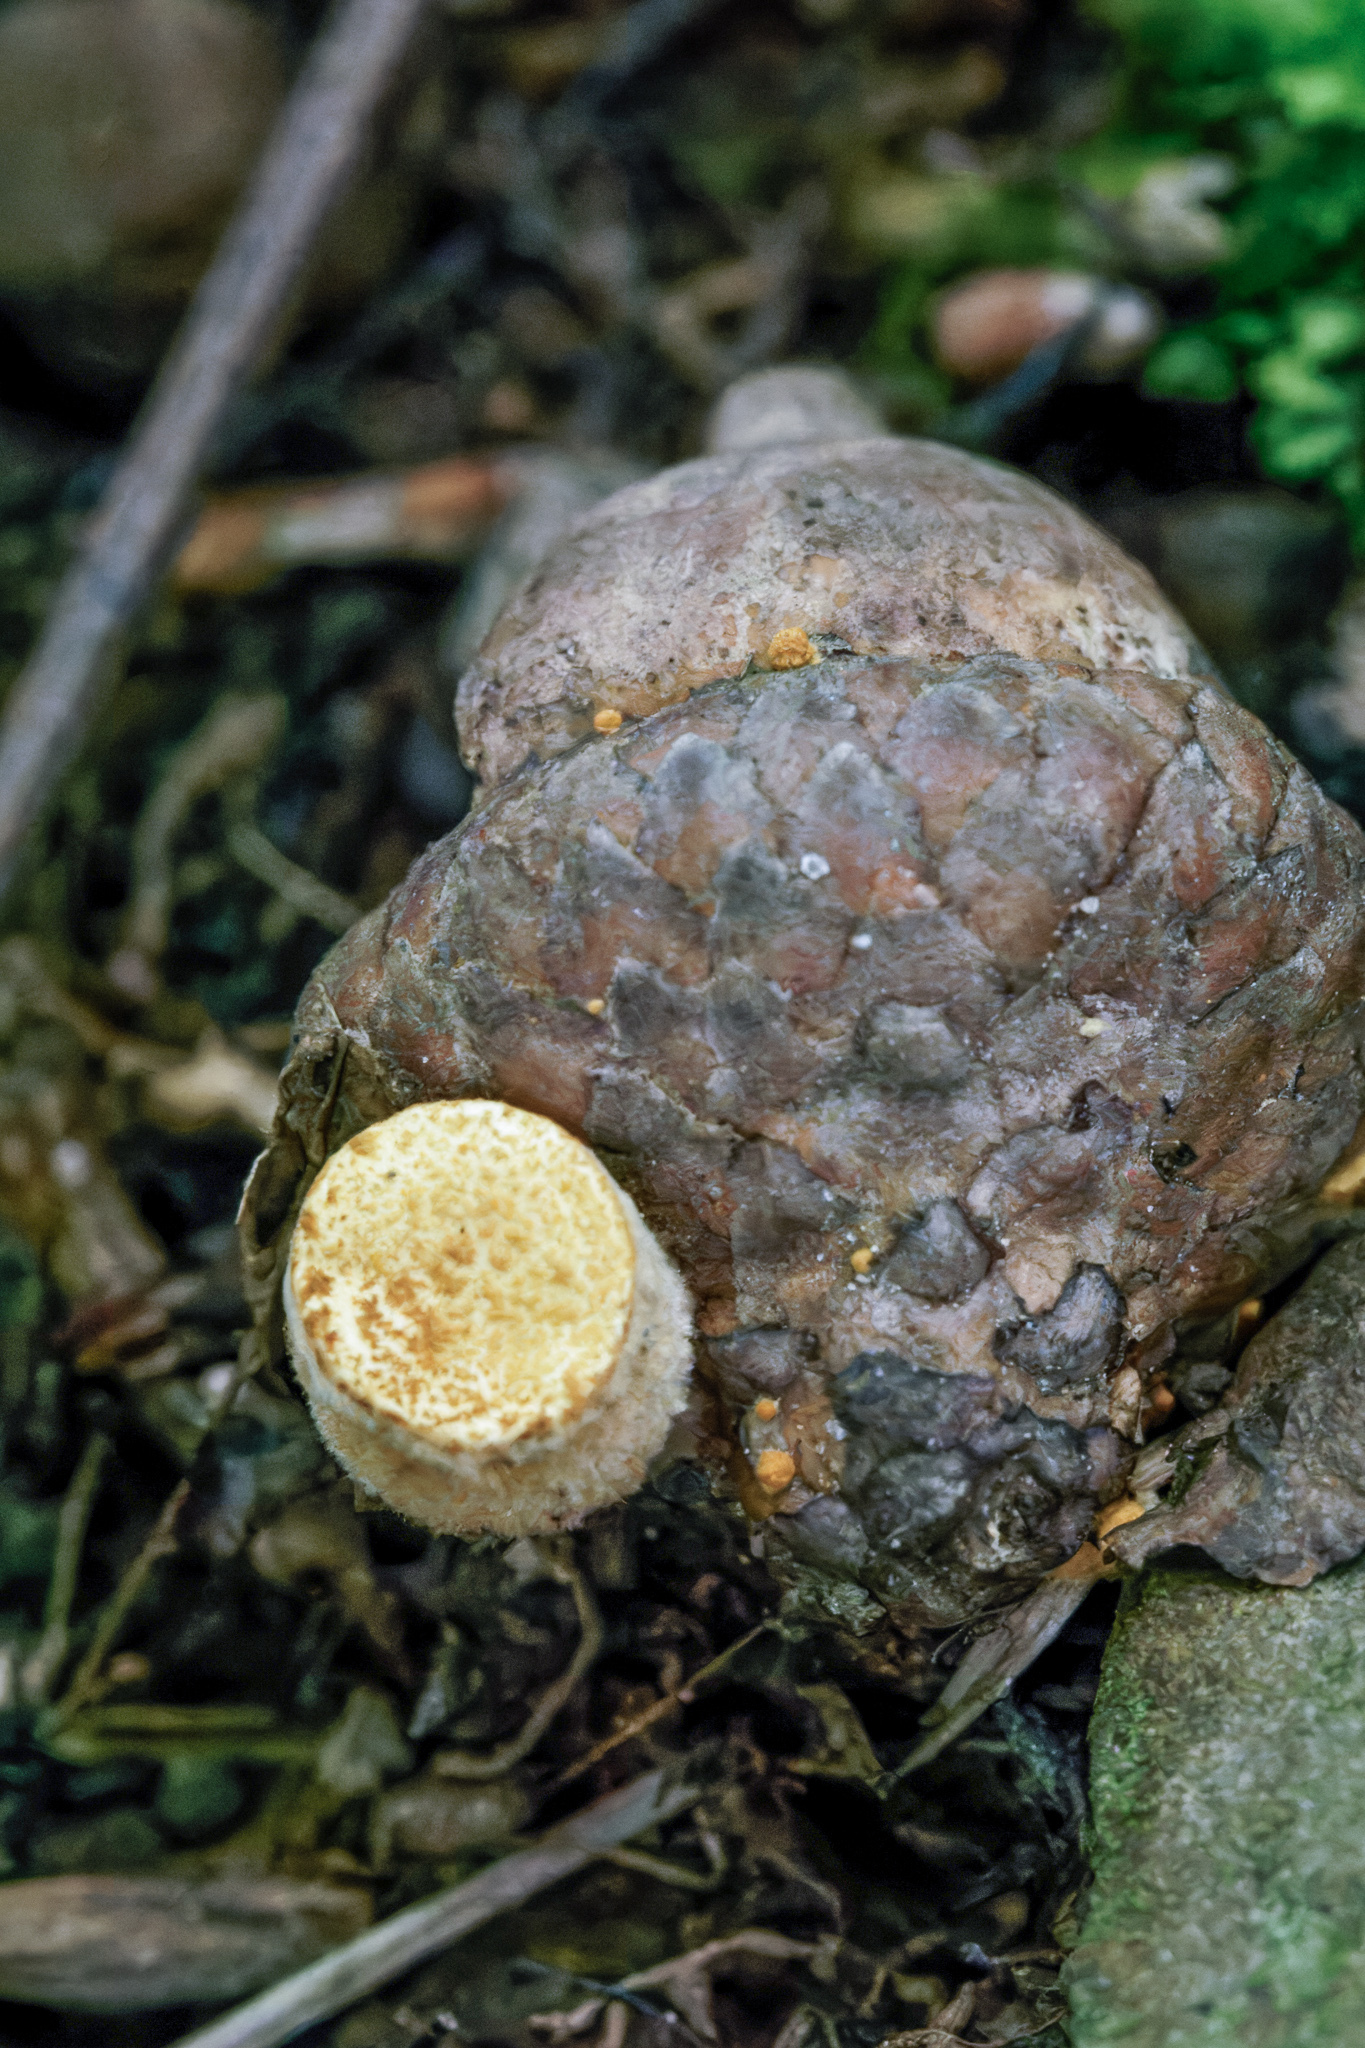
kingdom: Fungi
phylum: Basidiomycota
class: Agaricomycetes
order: Agaricales
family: Nidulariaceae
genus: Crucibulum
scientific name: Crucibulum laeve
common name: Common bird's nest
